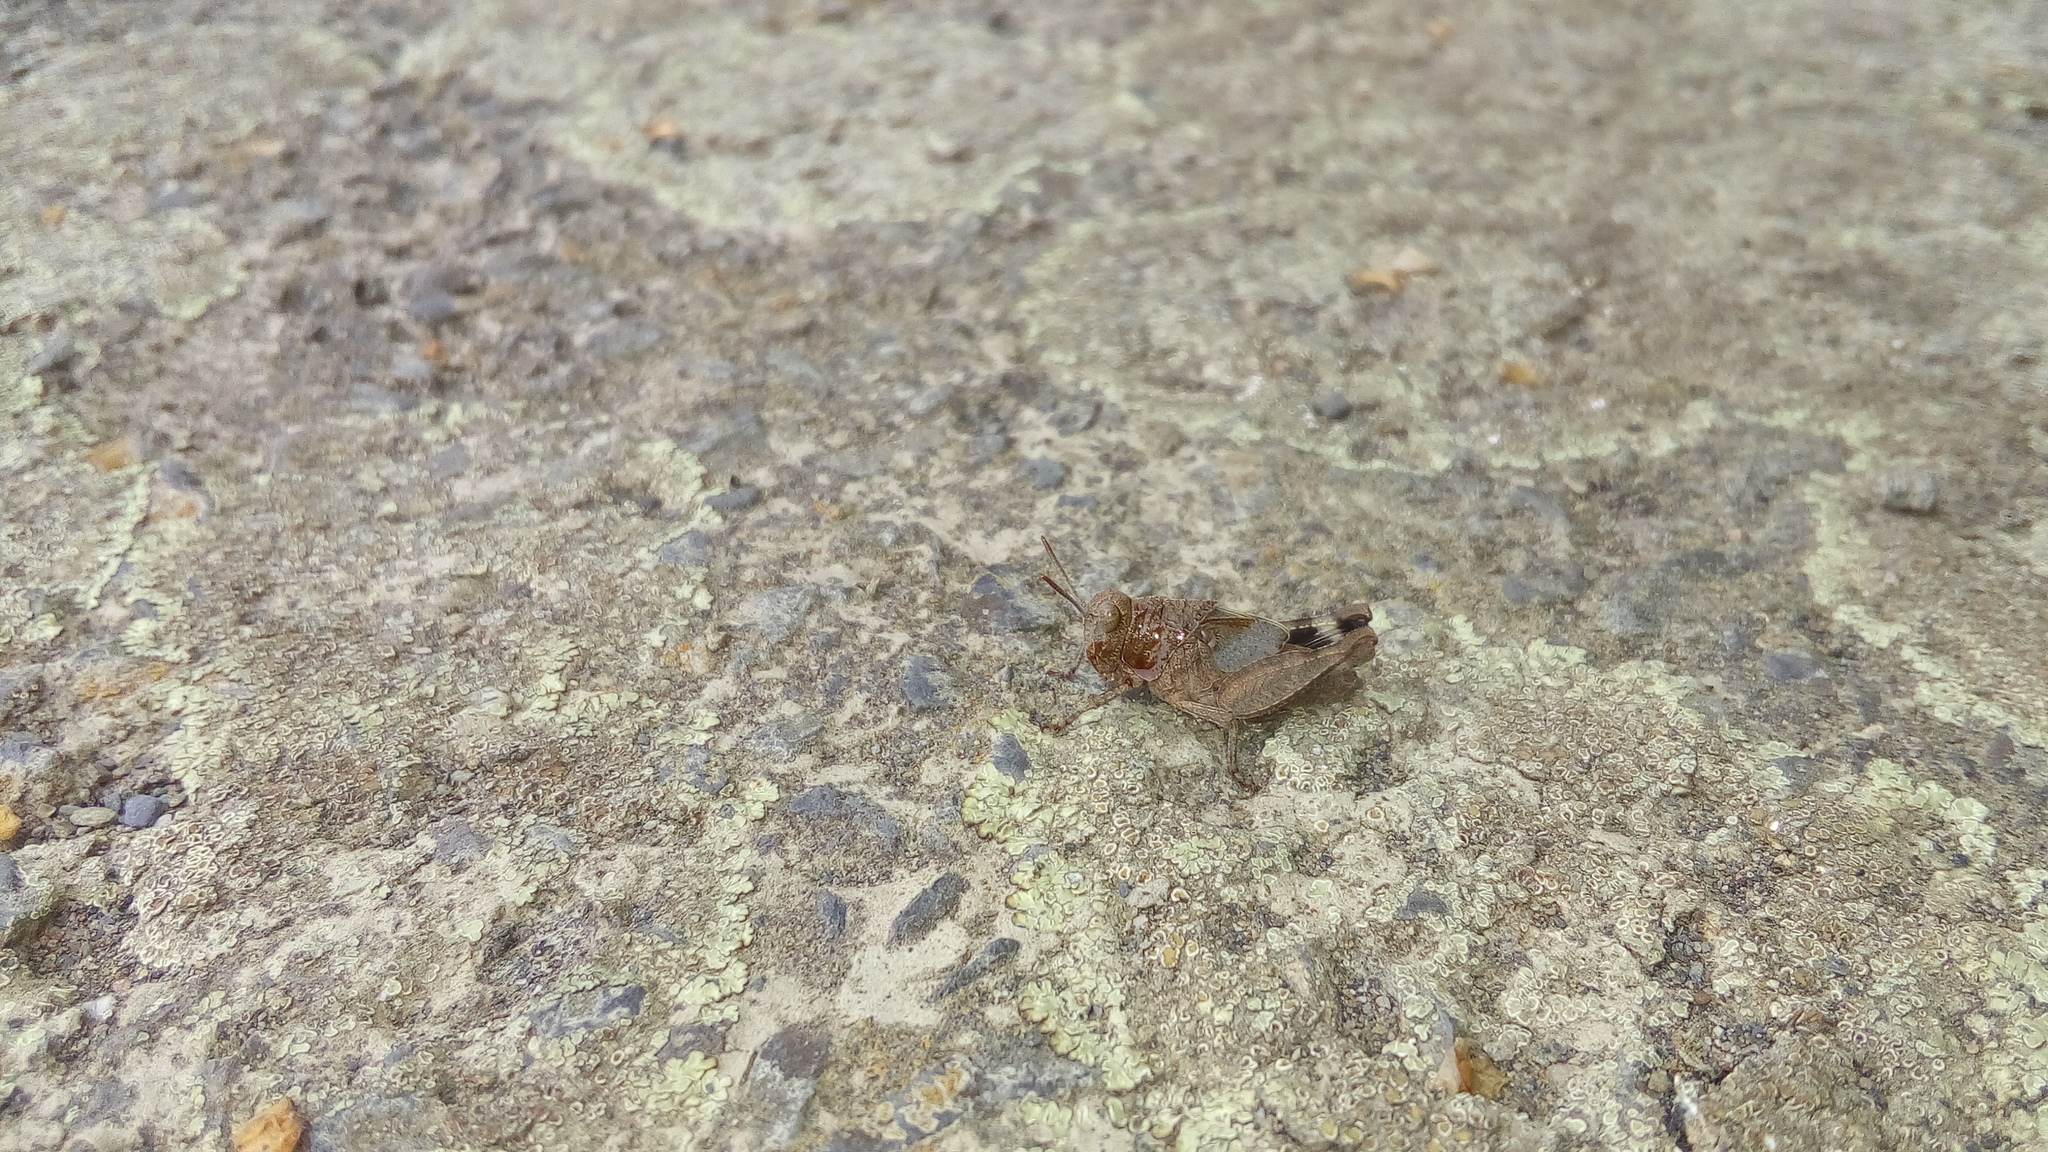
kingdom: Animalia
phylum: Arthropoda
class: Insecta
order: Orthoptera
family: Acrididae
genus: Oedipoda
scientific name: Oedipoda caerulescens
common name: Blue-winged grasshopper
